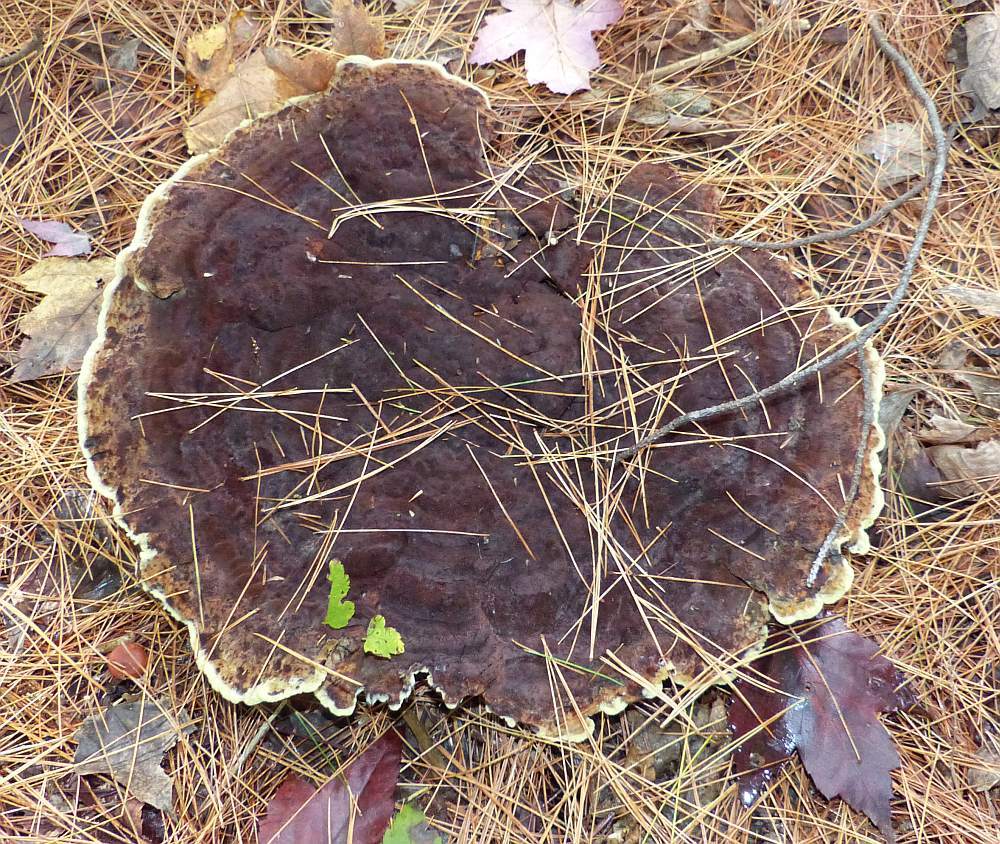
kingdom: Fungi
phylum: Basidiomycota
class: Agaricomycetes
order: Polyporales
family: Laetiporaceae
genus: Phaeolus
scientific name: Phaeolus schweinitzii
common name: Dyer's mazegill
